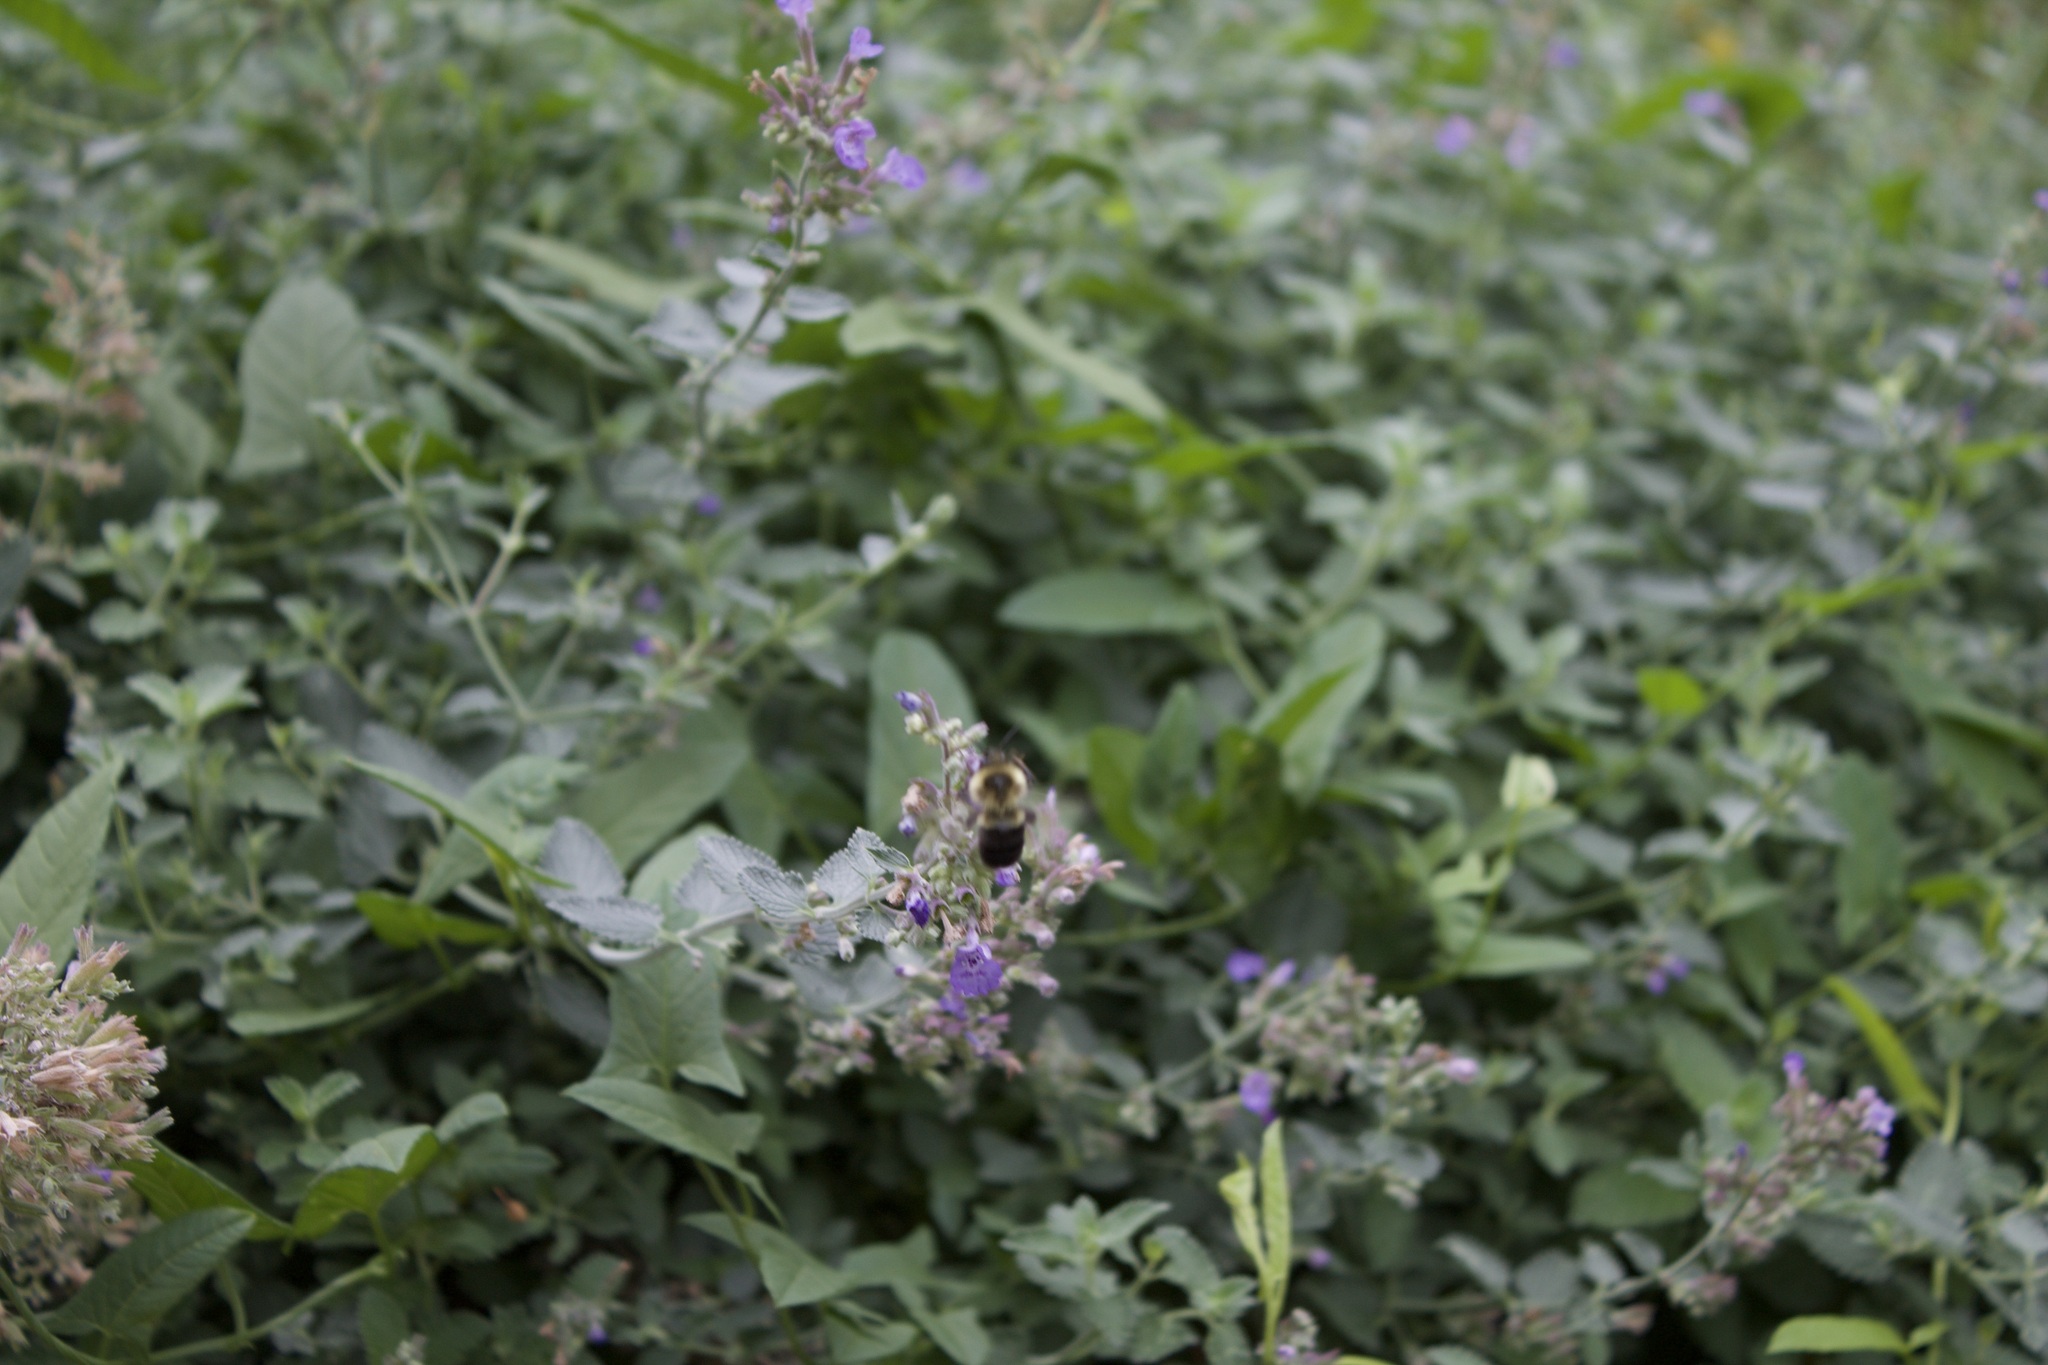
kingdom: Animalia
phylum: Arthropoda
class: Insecta
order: Hymenoptera
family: Apidae
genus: Bombus
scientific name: Bombus impatiens
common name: Common eastern bumble bee
